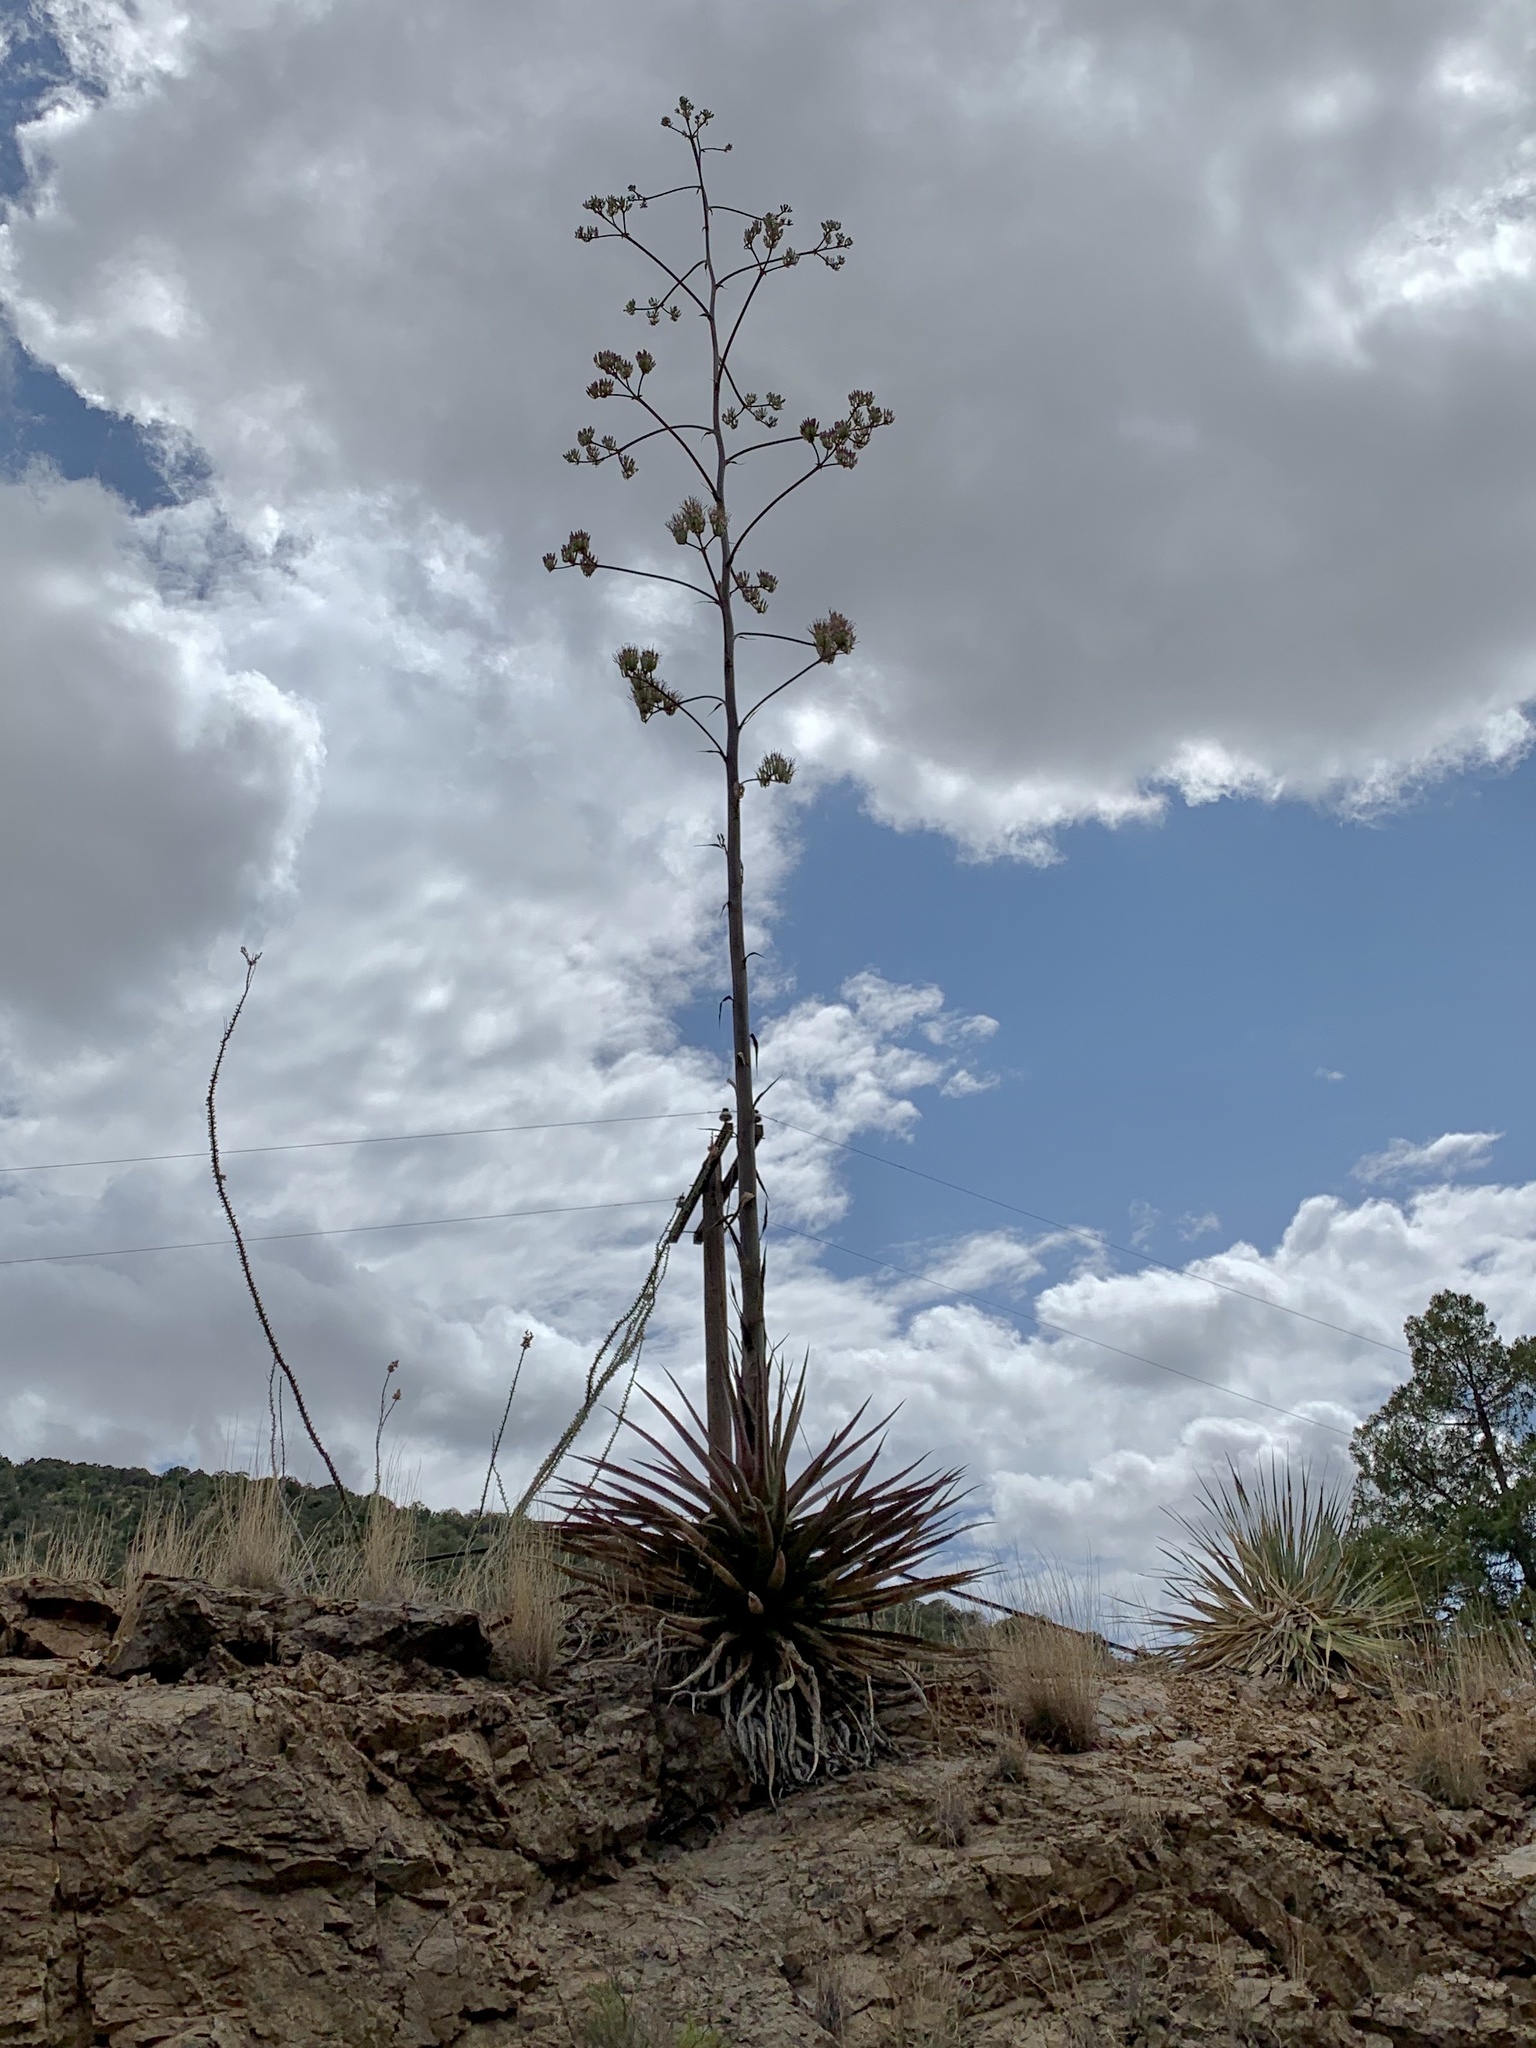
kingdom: Plantae
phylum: Tracheophyta
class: Liliopsida
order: Asparagales
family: Asparagaceae
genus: Agave
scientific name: Agave palmeri
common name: Palmer agave
